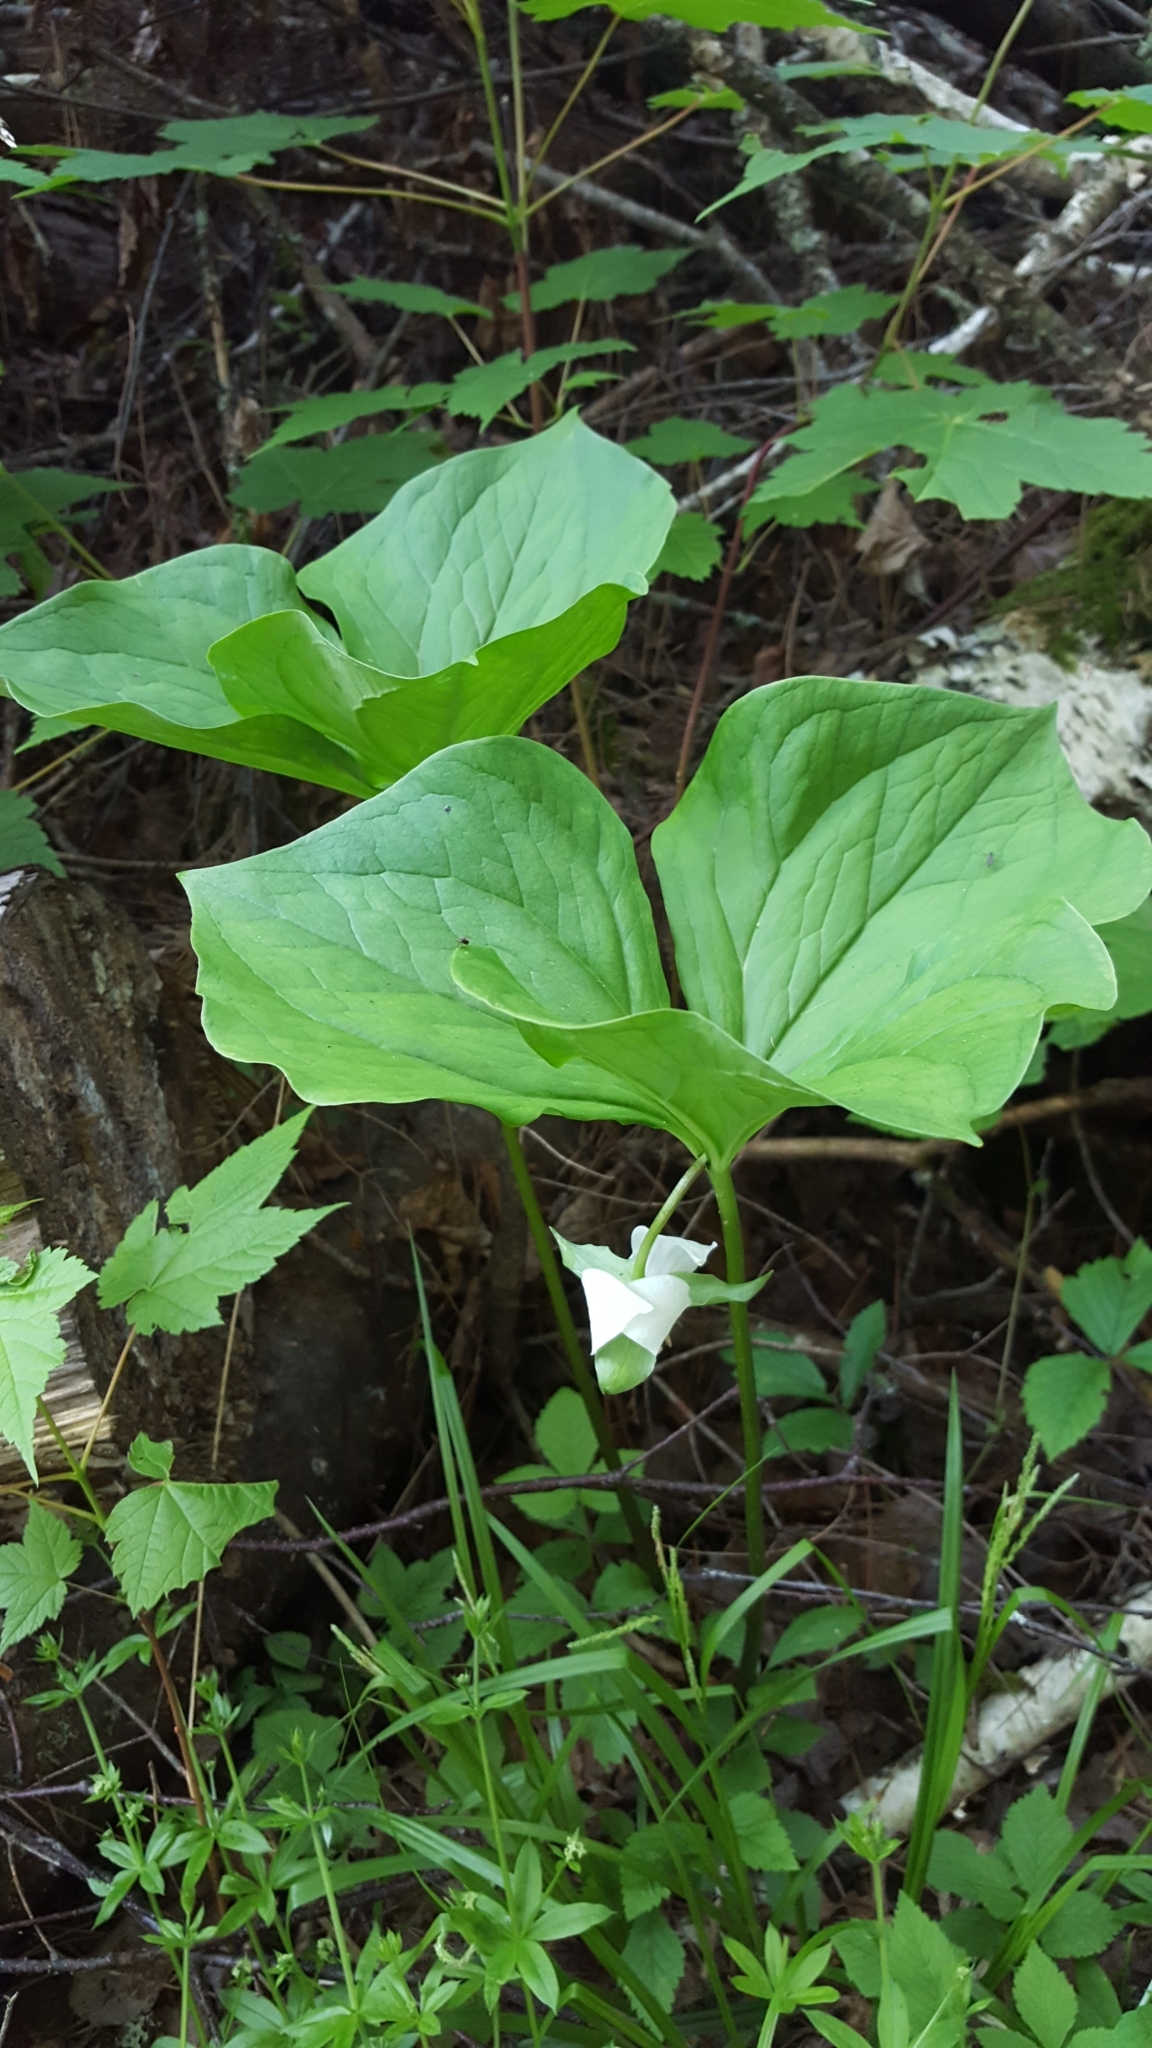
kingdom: Plantae
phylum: Tracheophyta
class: Liliopsida
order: Liliales
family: Melanthiaceae
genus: Trillium
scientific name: Trillium cernuum
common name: Nodding trillium
